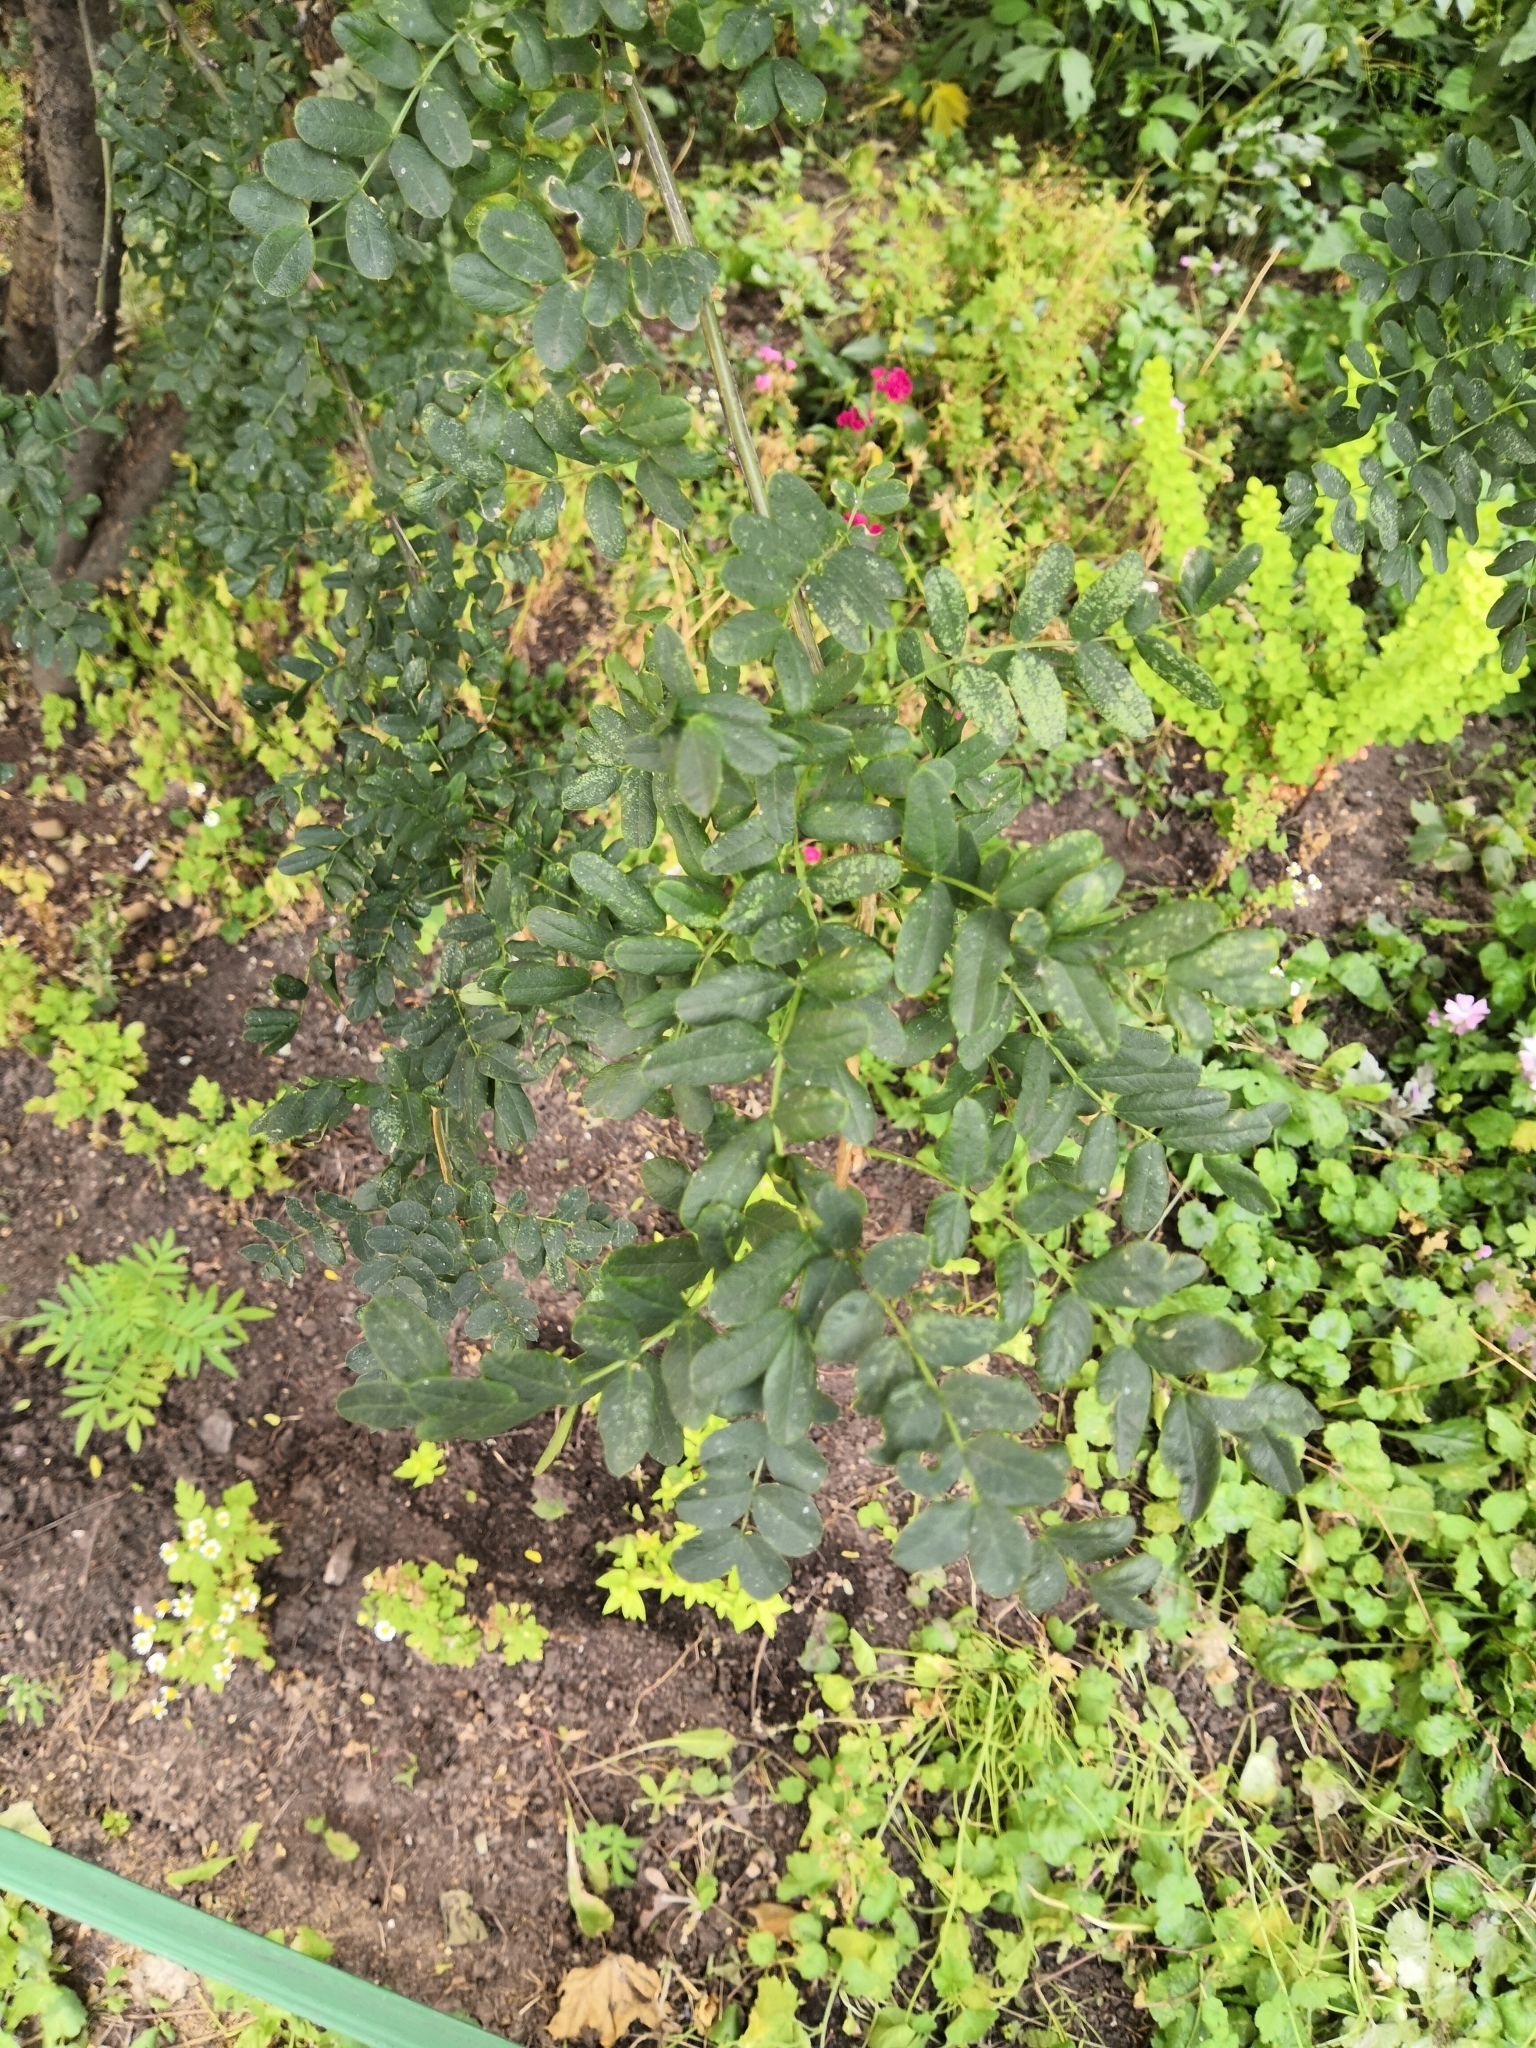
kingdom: Plantae
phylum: Tracheophyta
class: Magnoliopsida
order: Fabales
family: Fabaceae
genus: Caragana
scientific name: Caragana arborescens
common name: Siberian peashrub
